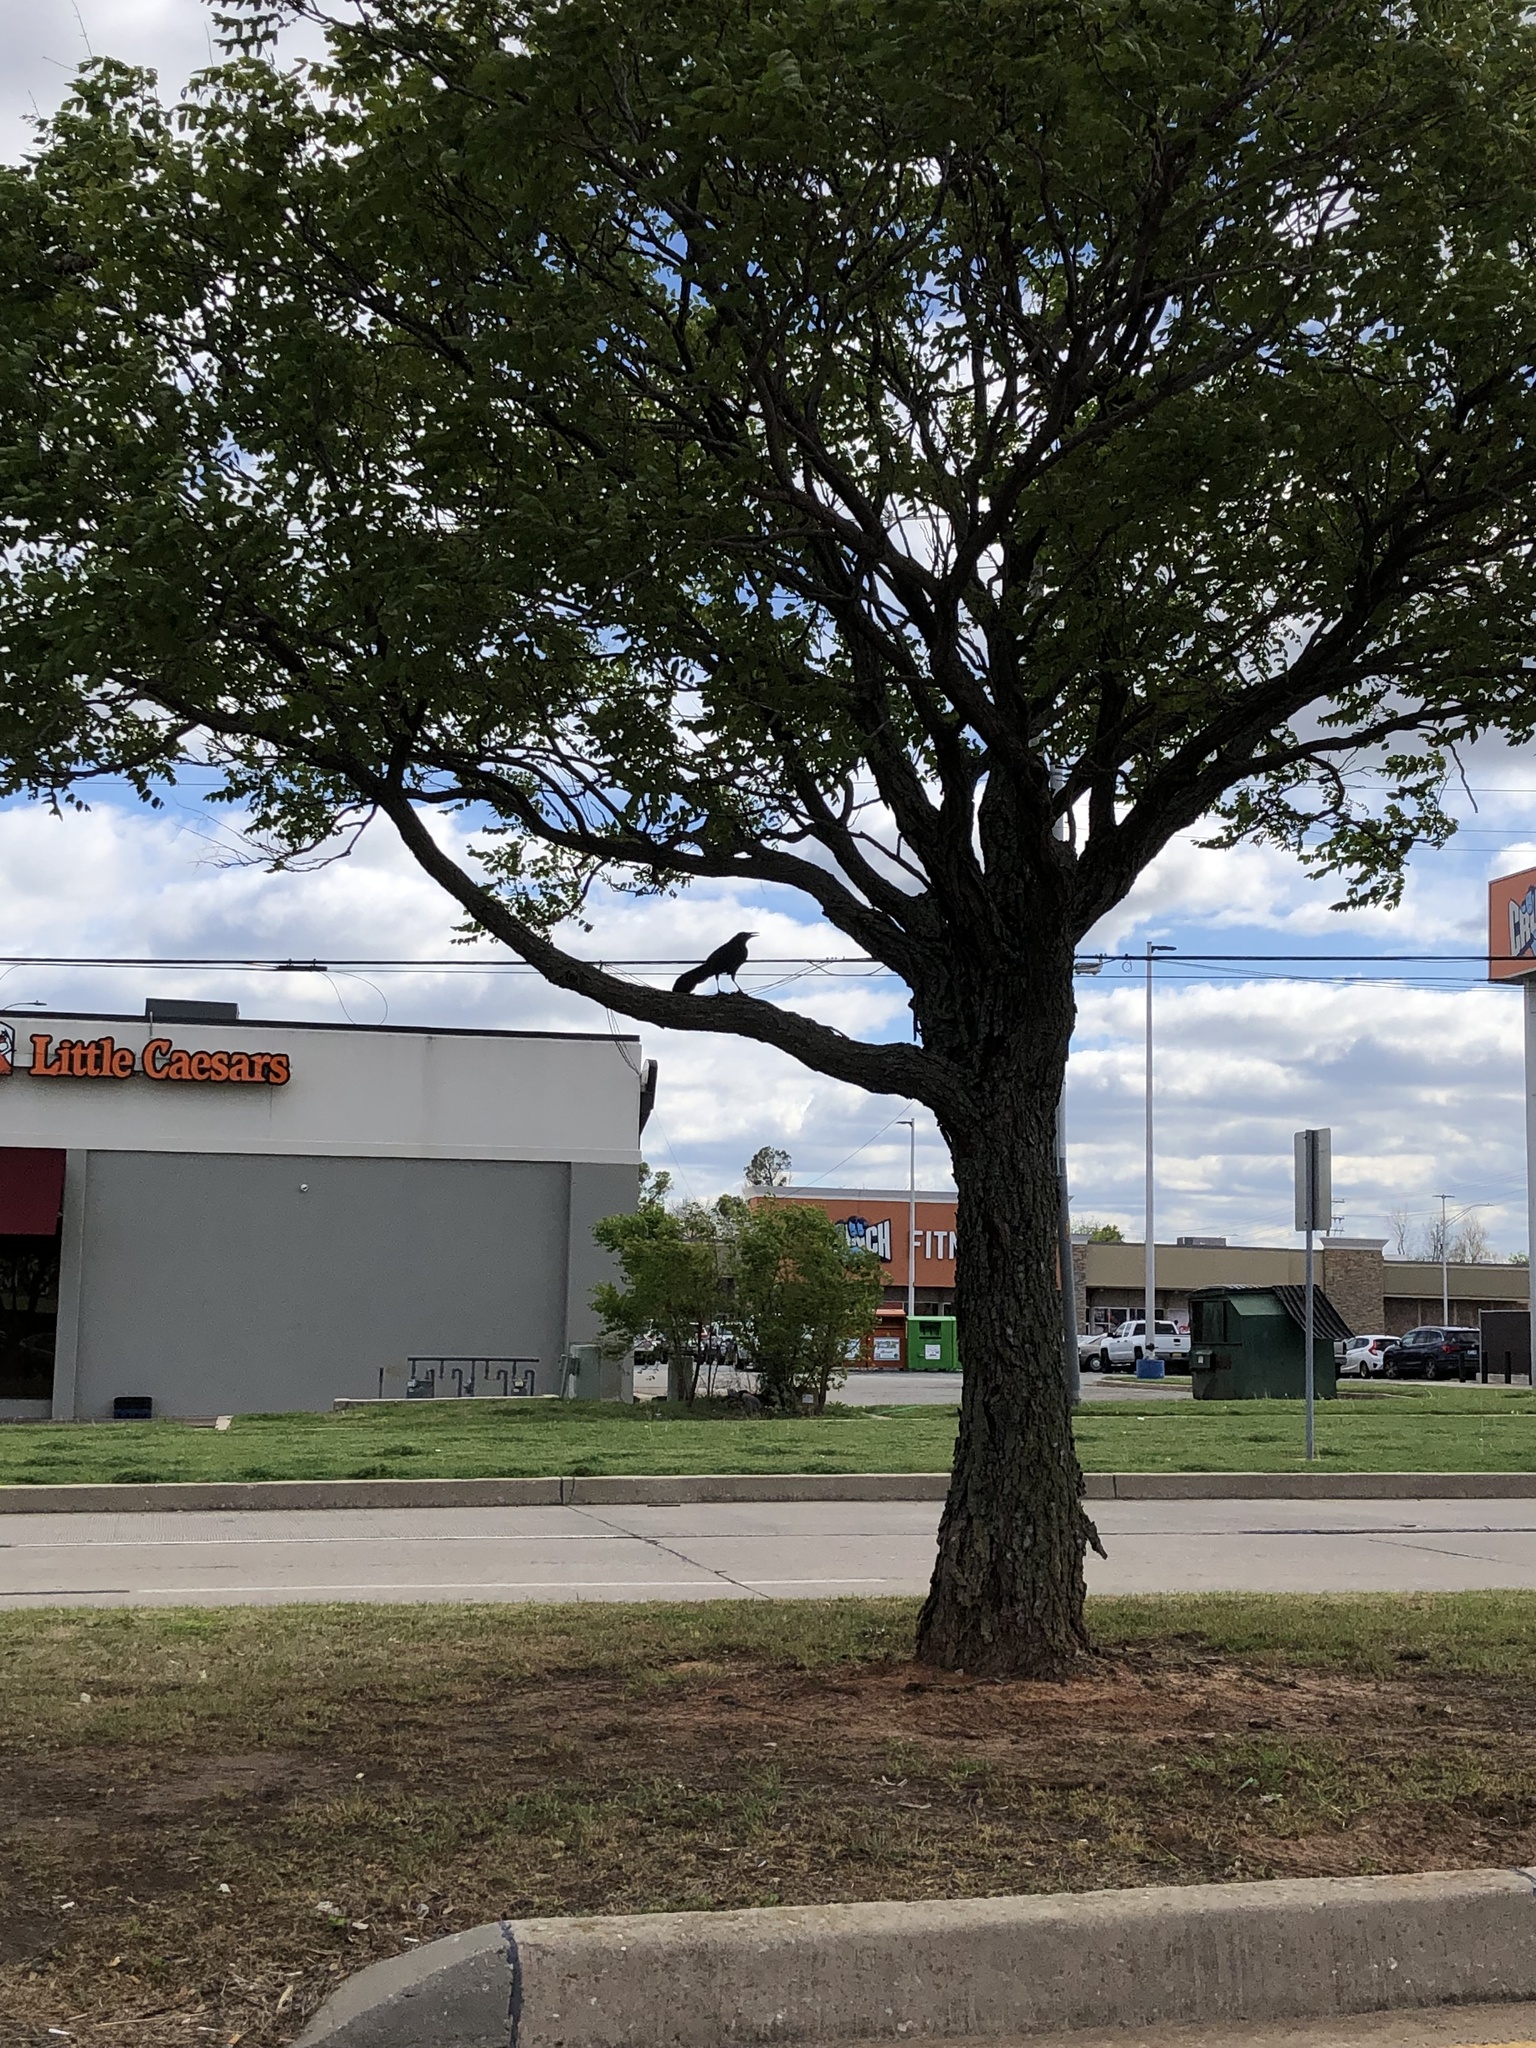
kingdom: Animalia
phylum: Chordata
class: Aves
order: Passeriformes
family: Icteridae
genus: Quiscalus
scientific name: Quiscalus mexicanus
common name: Great-tailed grackle
